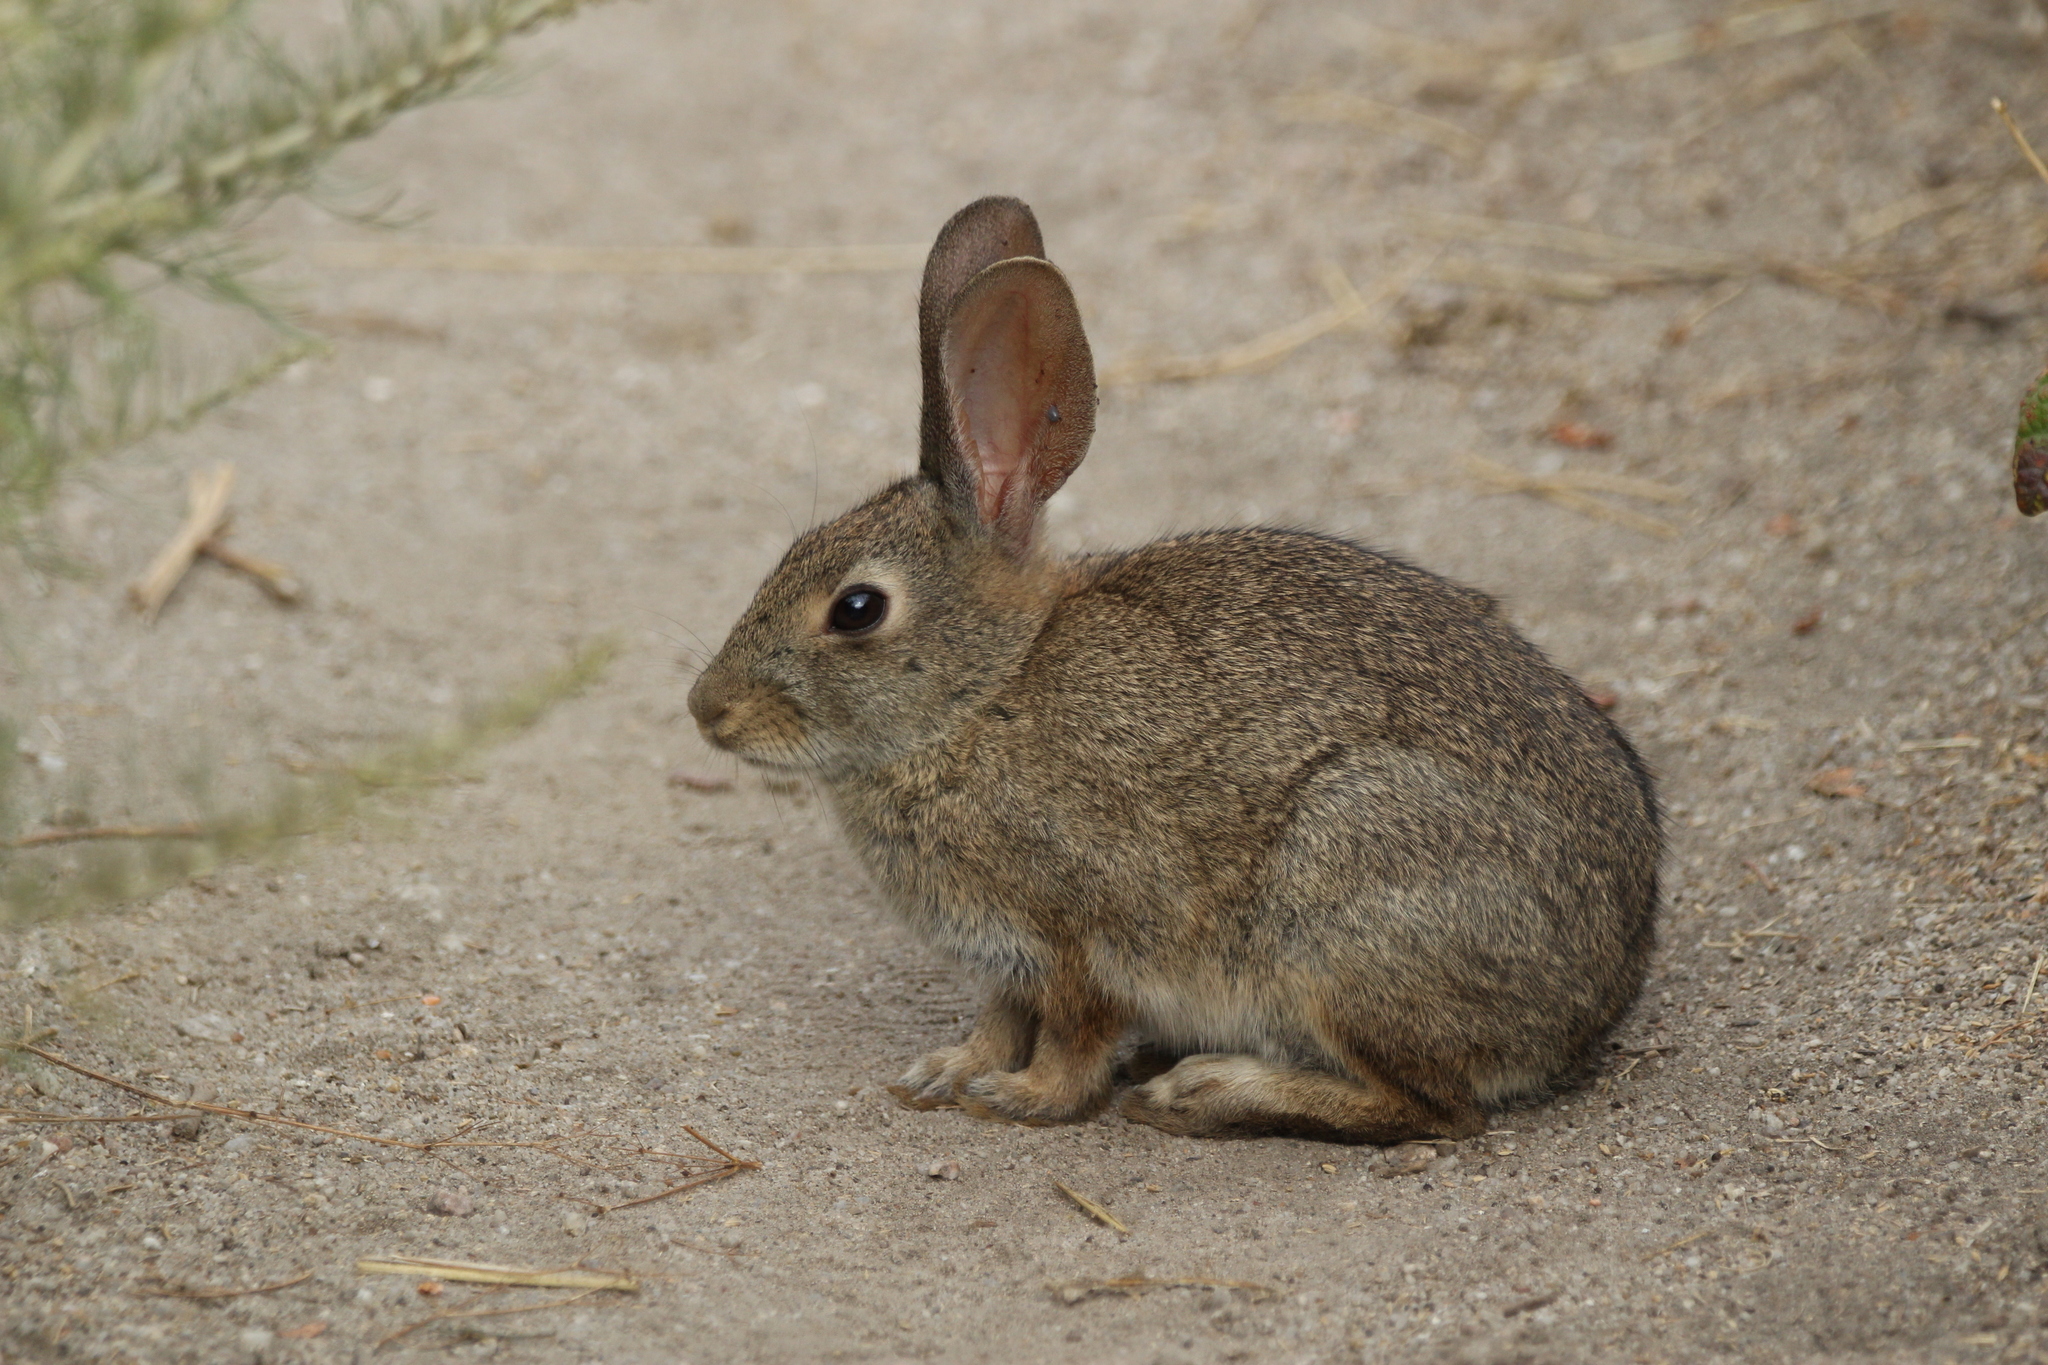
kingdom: Animalia
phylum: Chordata
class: Mammalia
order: Lagomorpha
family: Leporidae
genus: Sylvilagus
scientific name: Sylvilagus bachmani
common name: Brush rabbit
